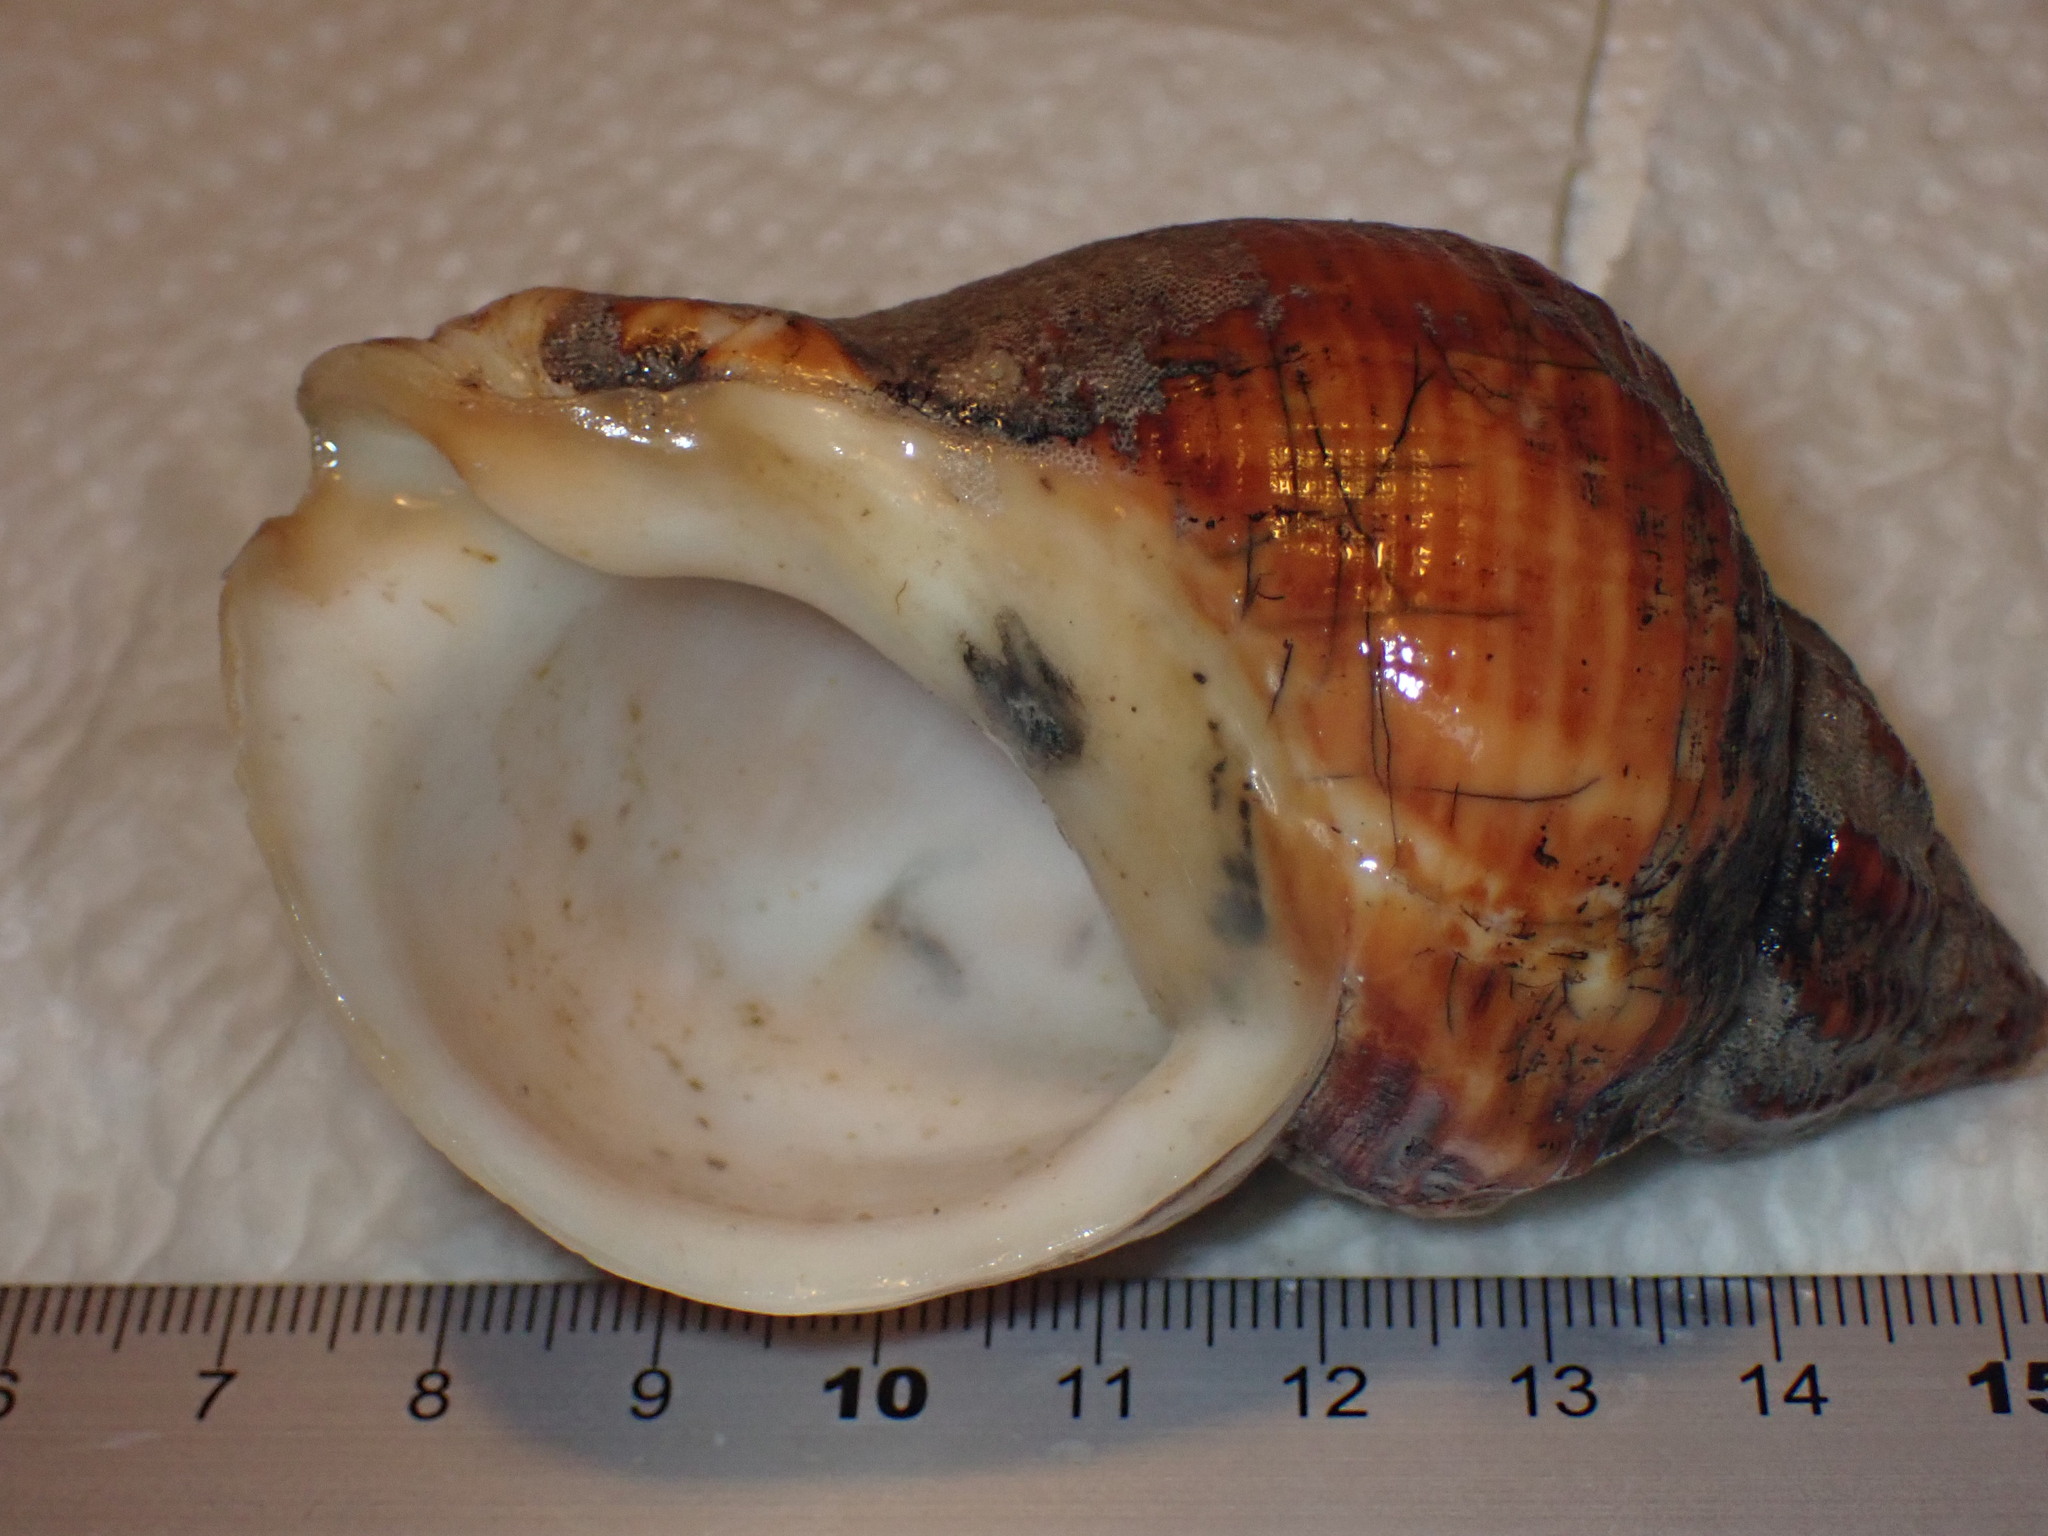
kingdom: Animalia
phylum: Mollusca
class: Gastropoda
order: Neogastropoda
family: Buccinidae
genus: Buccinum
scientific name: Buccinum undatum
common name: Common whelk
